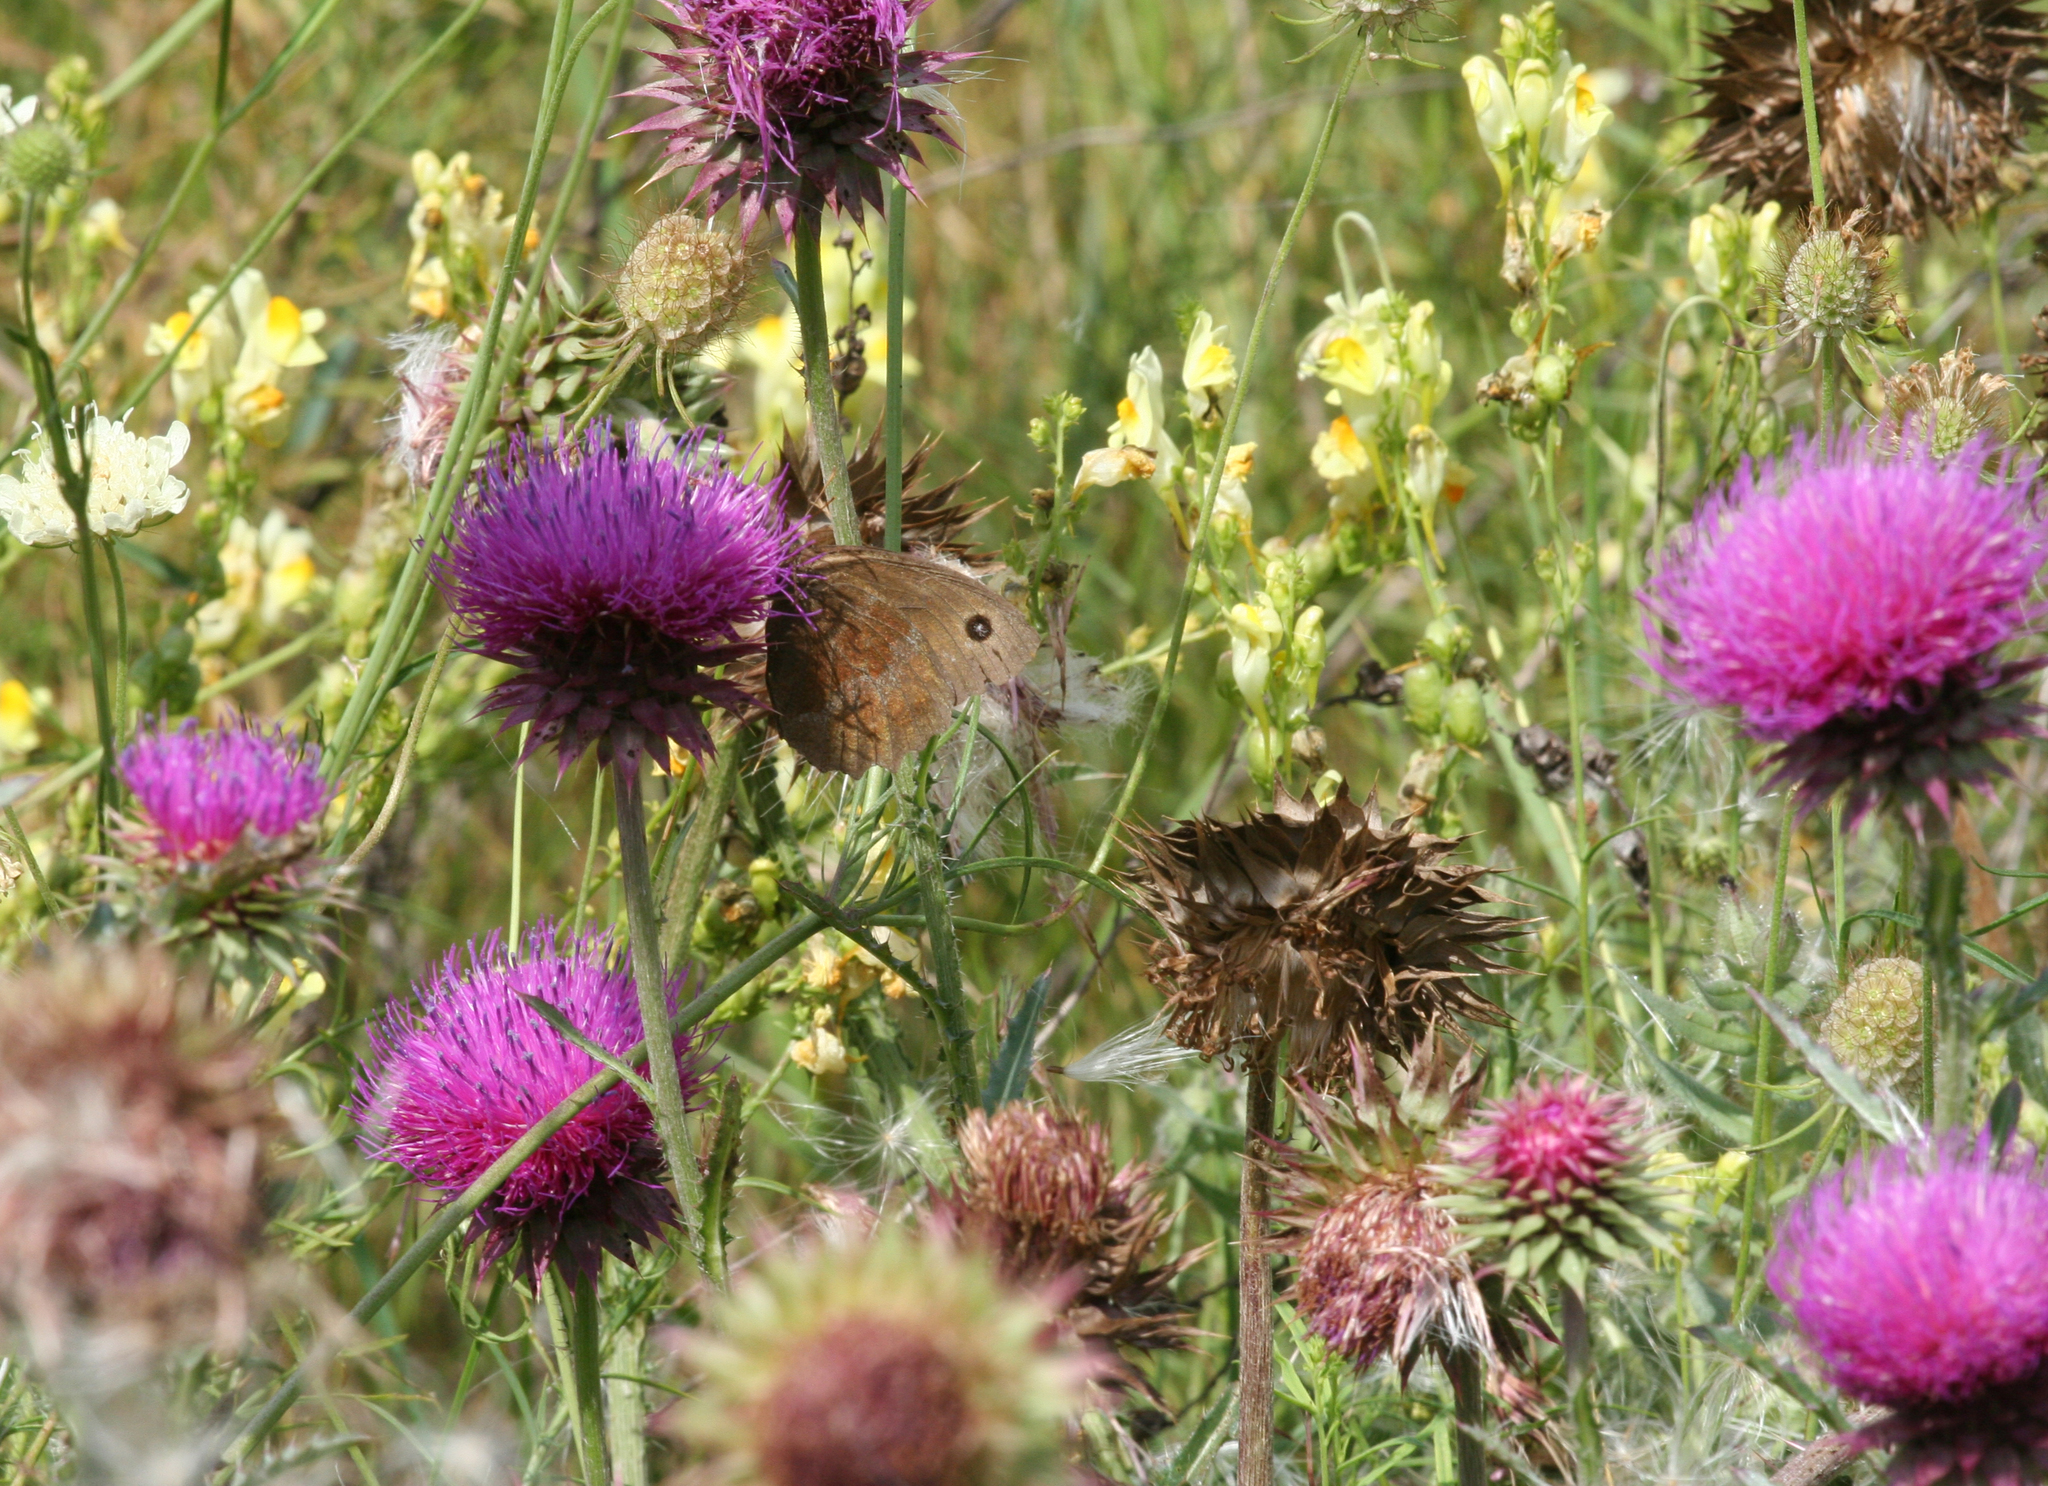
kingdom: Plantae
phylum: Tracheophyta
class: Magnoliopsida
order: Asterales
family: Asteraceae
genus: Carduus
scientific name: Carduus nutans
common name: Musk thistle
